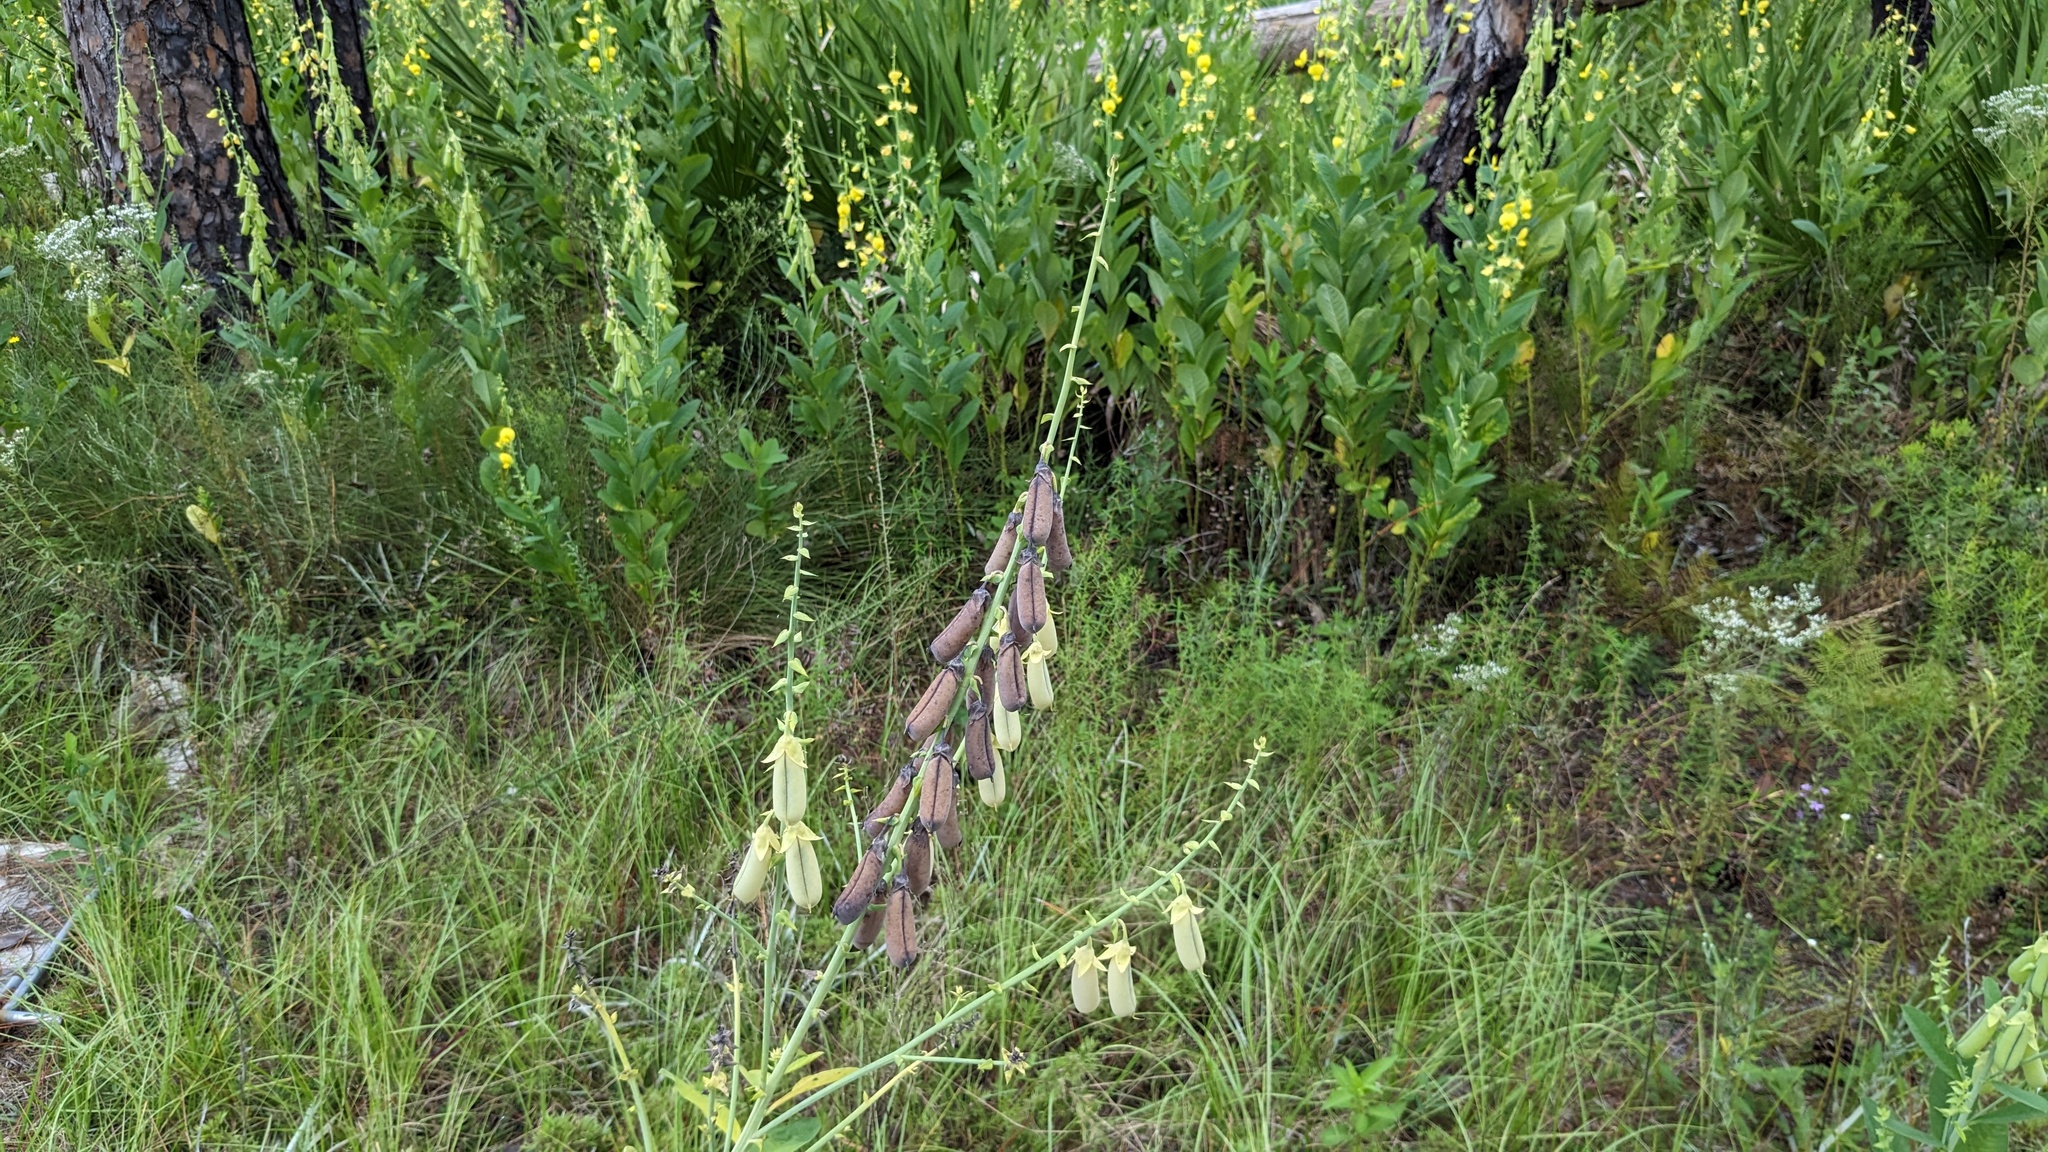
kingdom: Plantae
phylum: Tracheophyta
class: Magnoliopsida
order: Fabales
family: Fabaceae
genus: Crotalaria
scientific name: Crotalaria spectabilis
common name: Showy rattlebox
